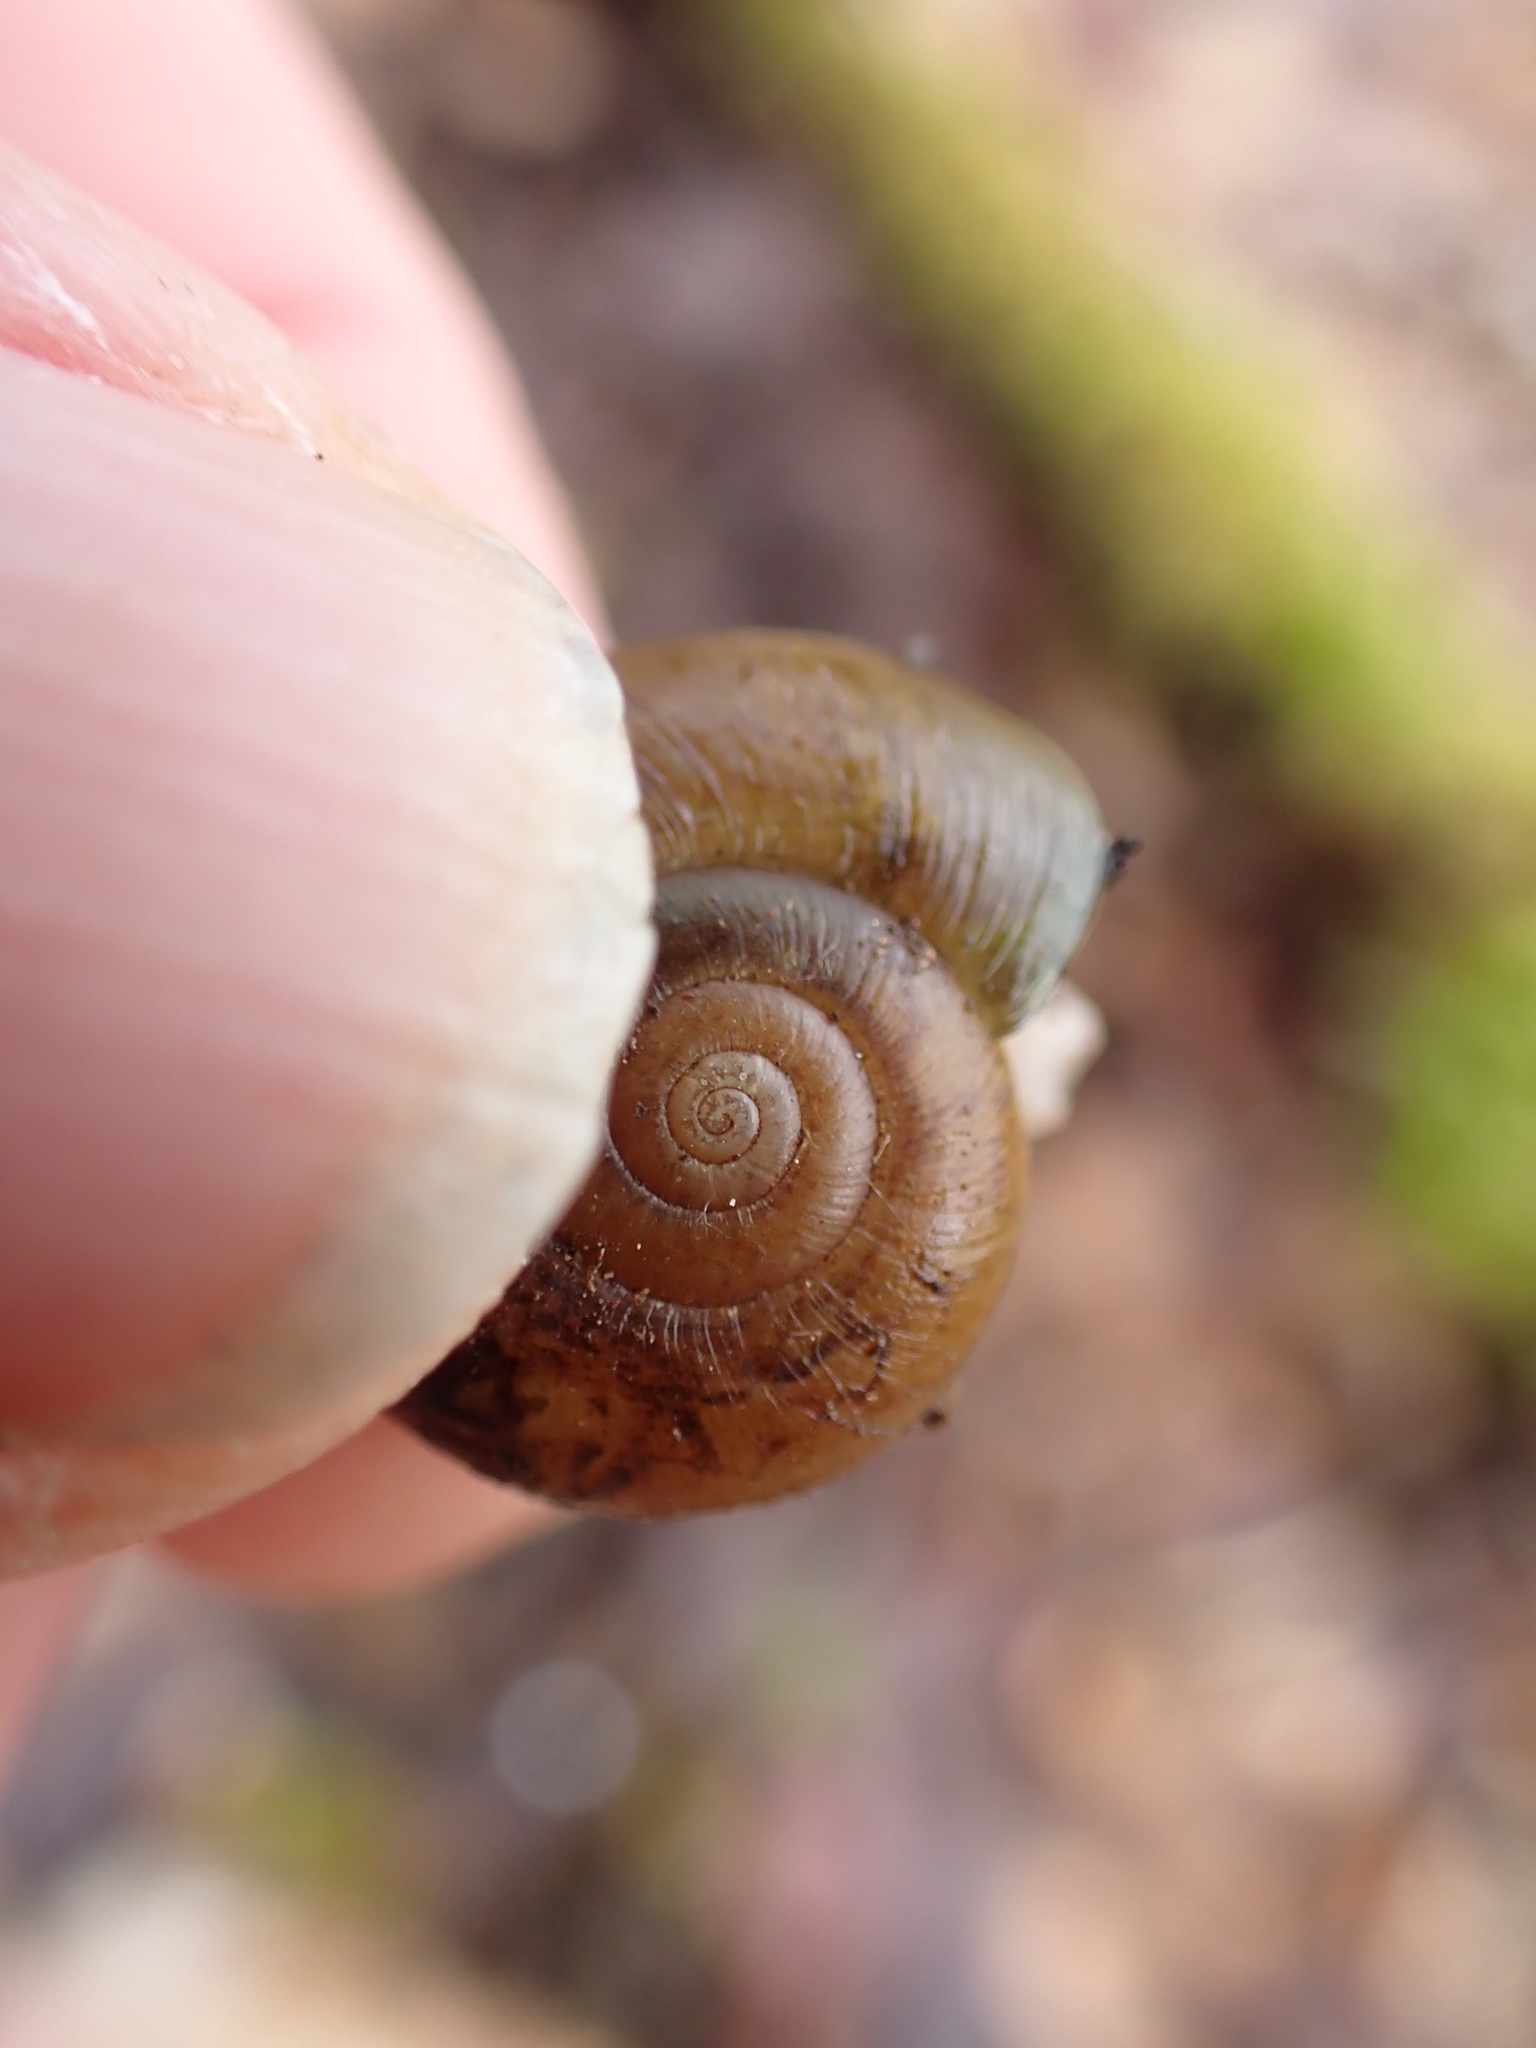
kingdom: Animalia
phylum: Mollusca
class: Gastropoda
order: Stylommatophora
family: Haplotrematidae
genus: Haplotrema
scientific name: Haplotrema vancouverense
